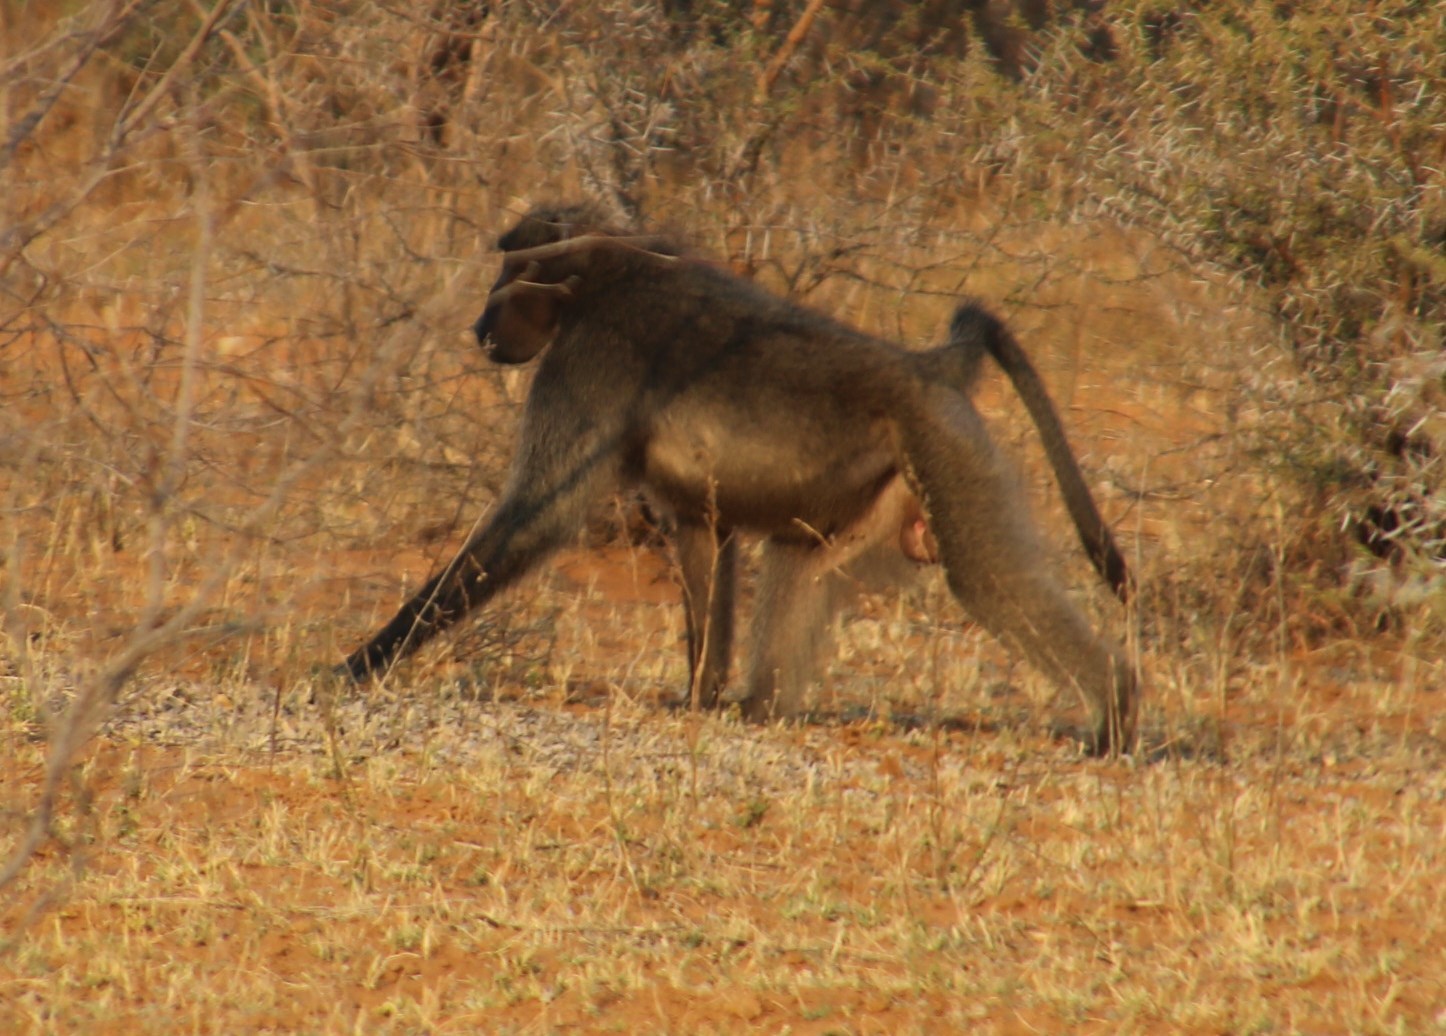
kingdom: Animalia
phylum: Chordata
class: Mammalia
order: Primates
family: Cercopithecidae
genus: Papio
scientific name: Papio ursinus
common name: Chacma baboon
